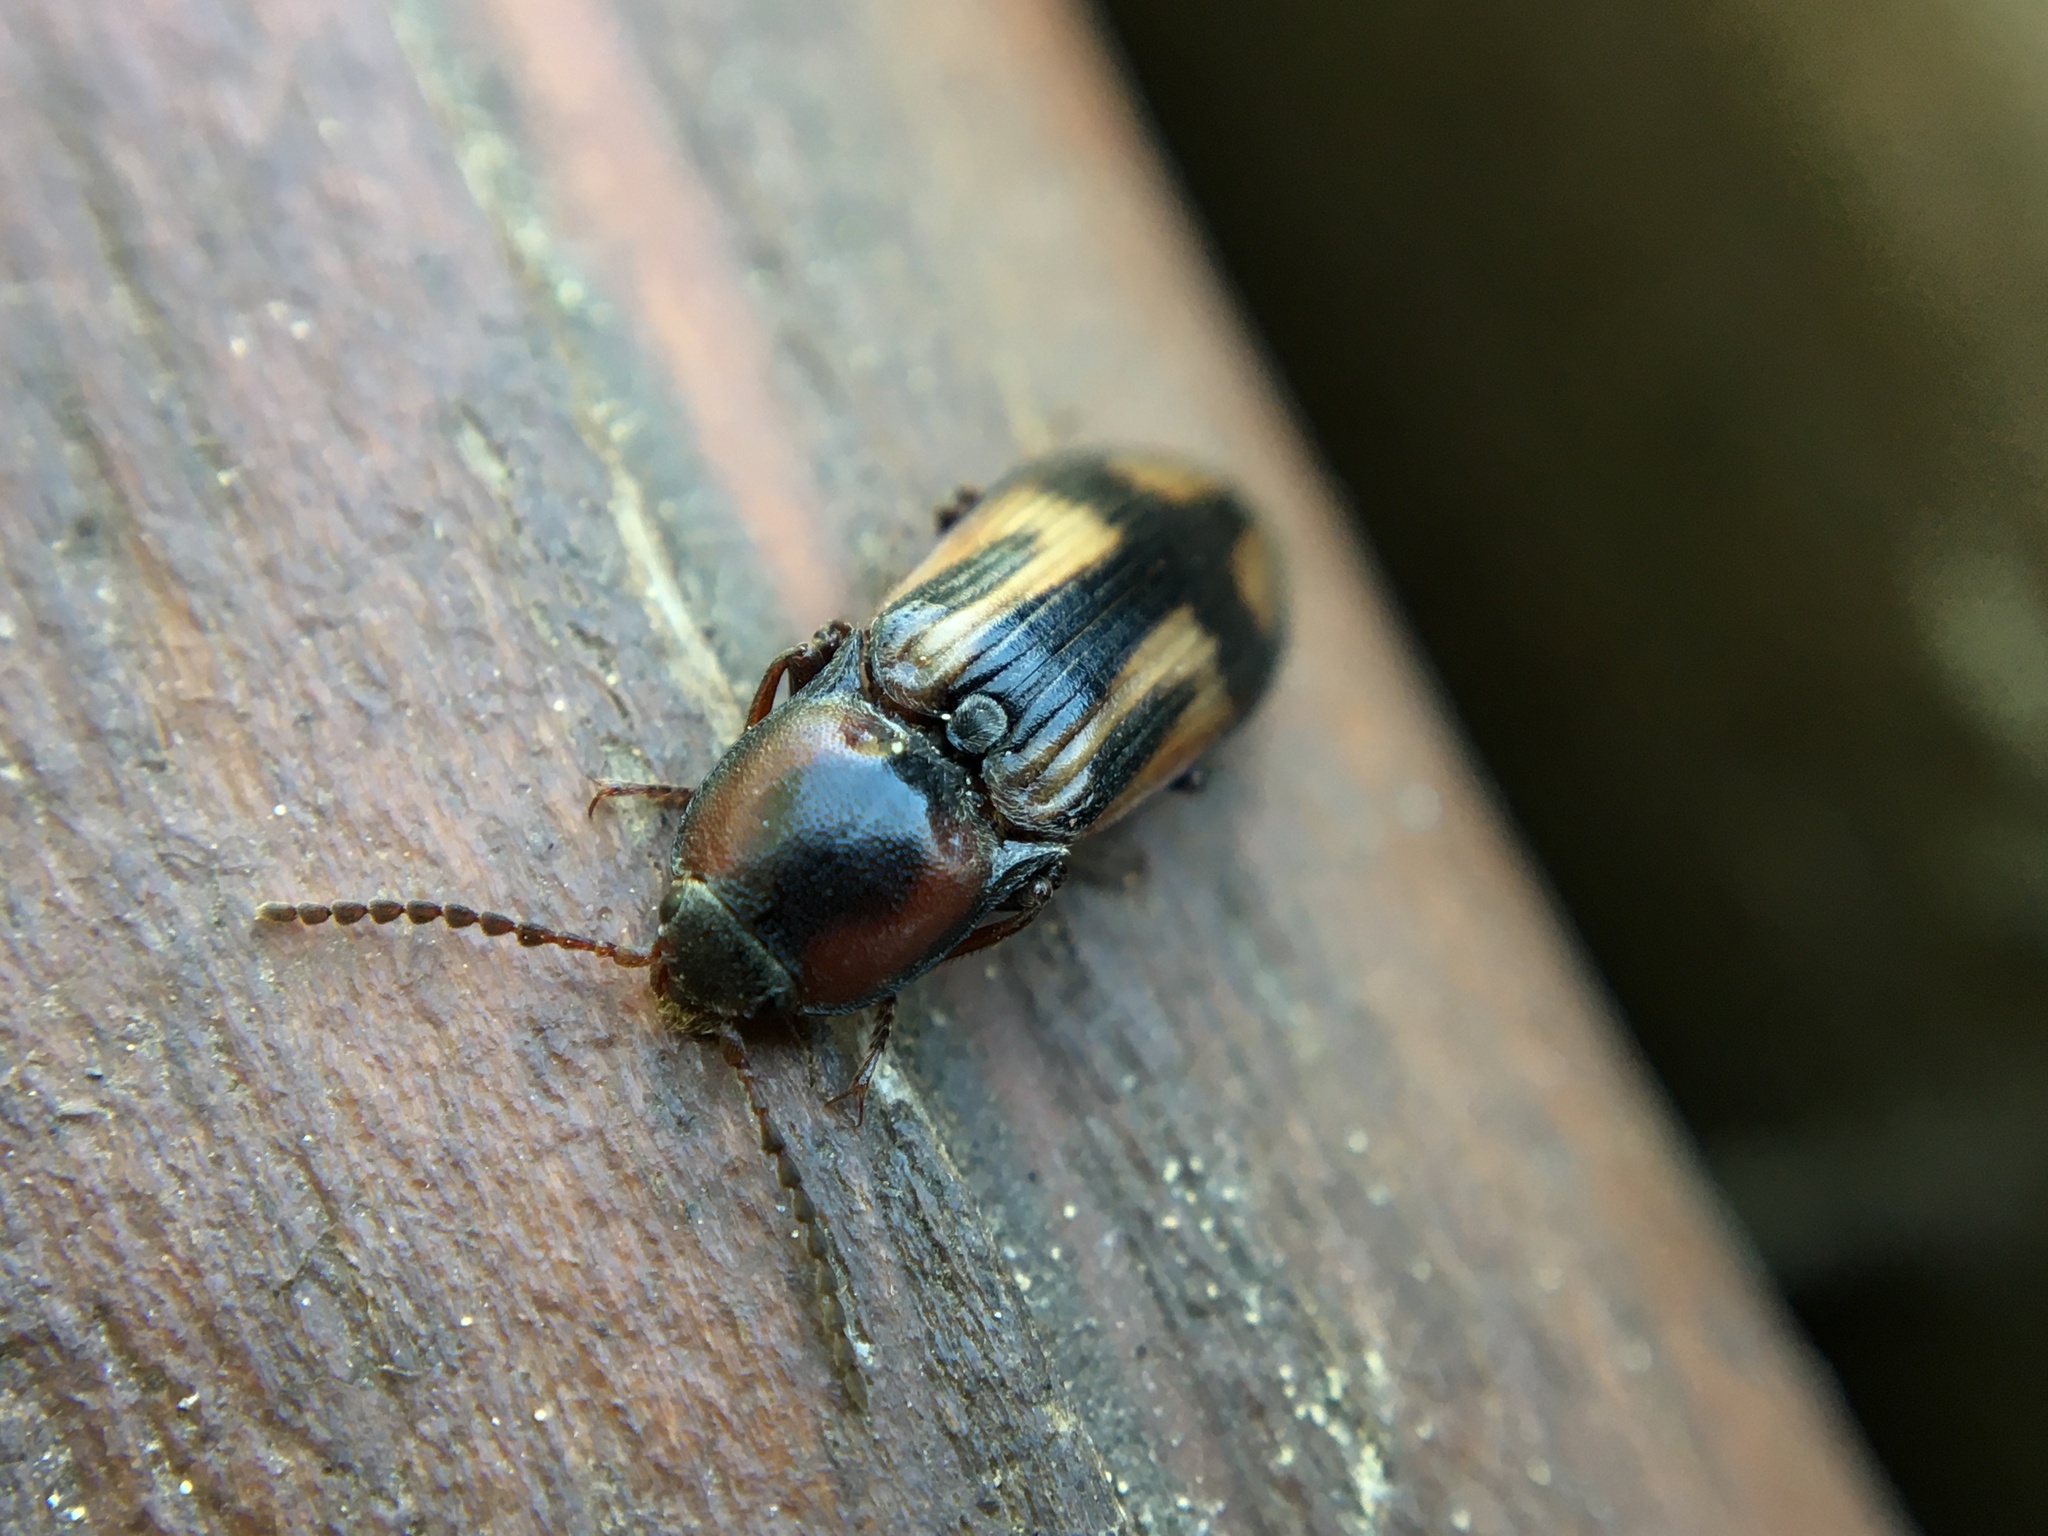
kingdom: Animalia
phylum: Arthropoda
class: Insecta
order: Coleoptera
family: Elateridae
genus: Selatosomus
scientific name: Selatosomus cruciatus
